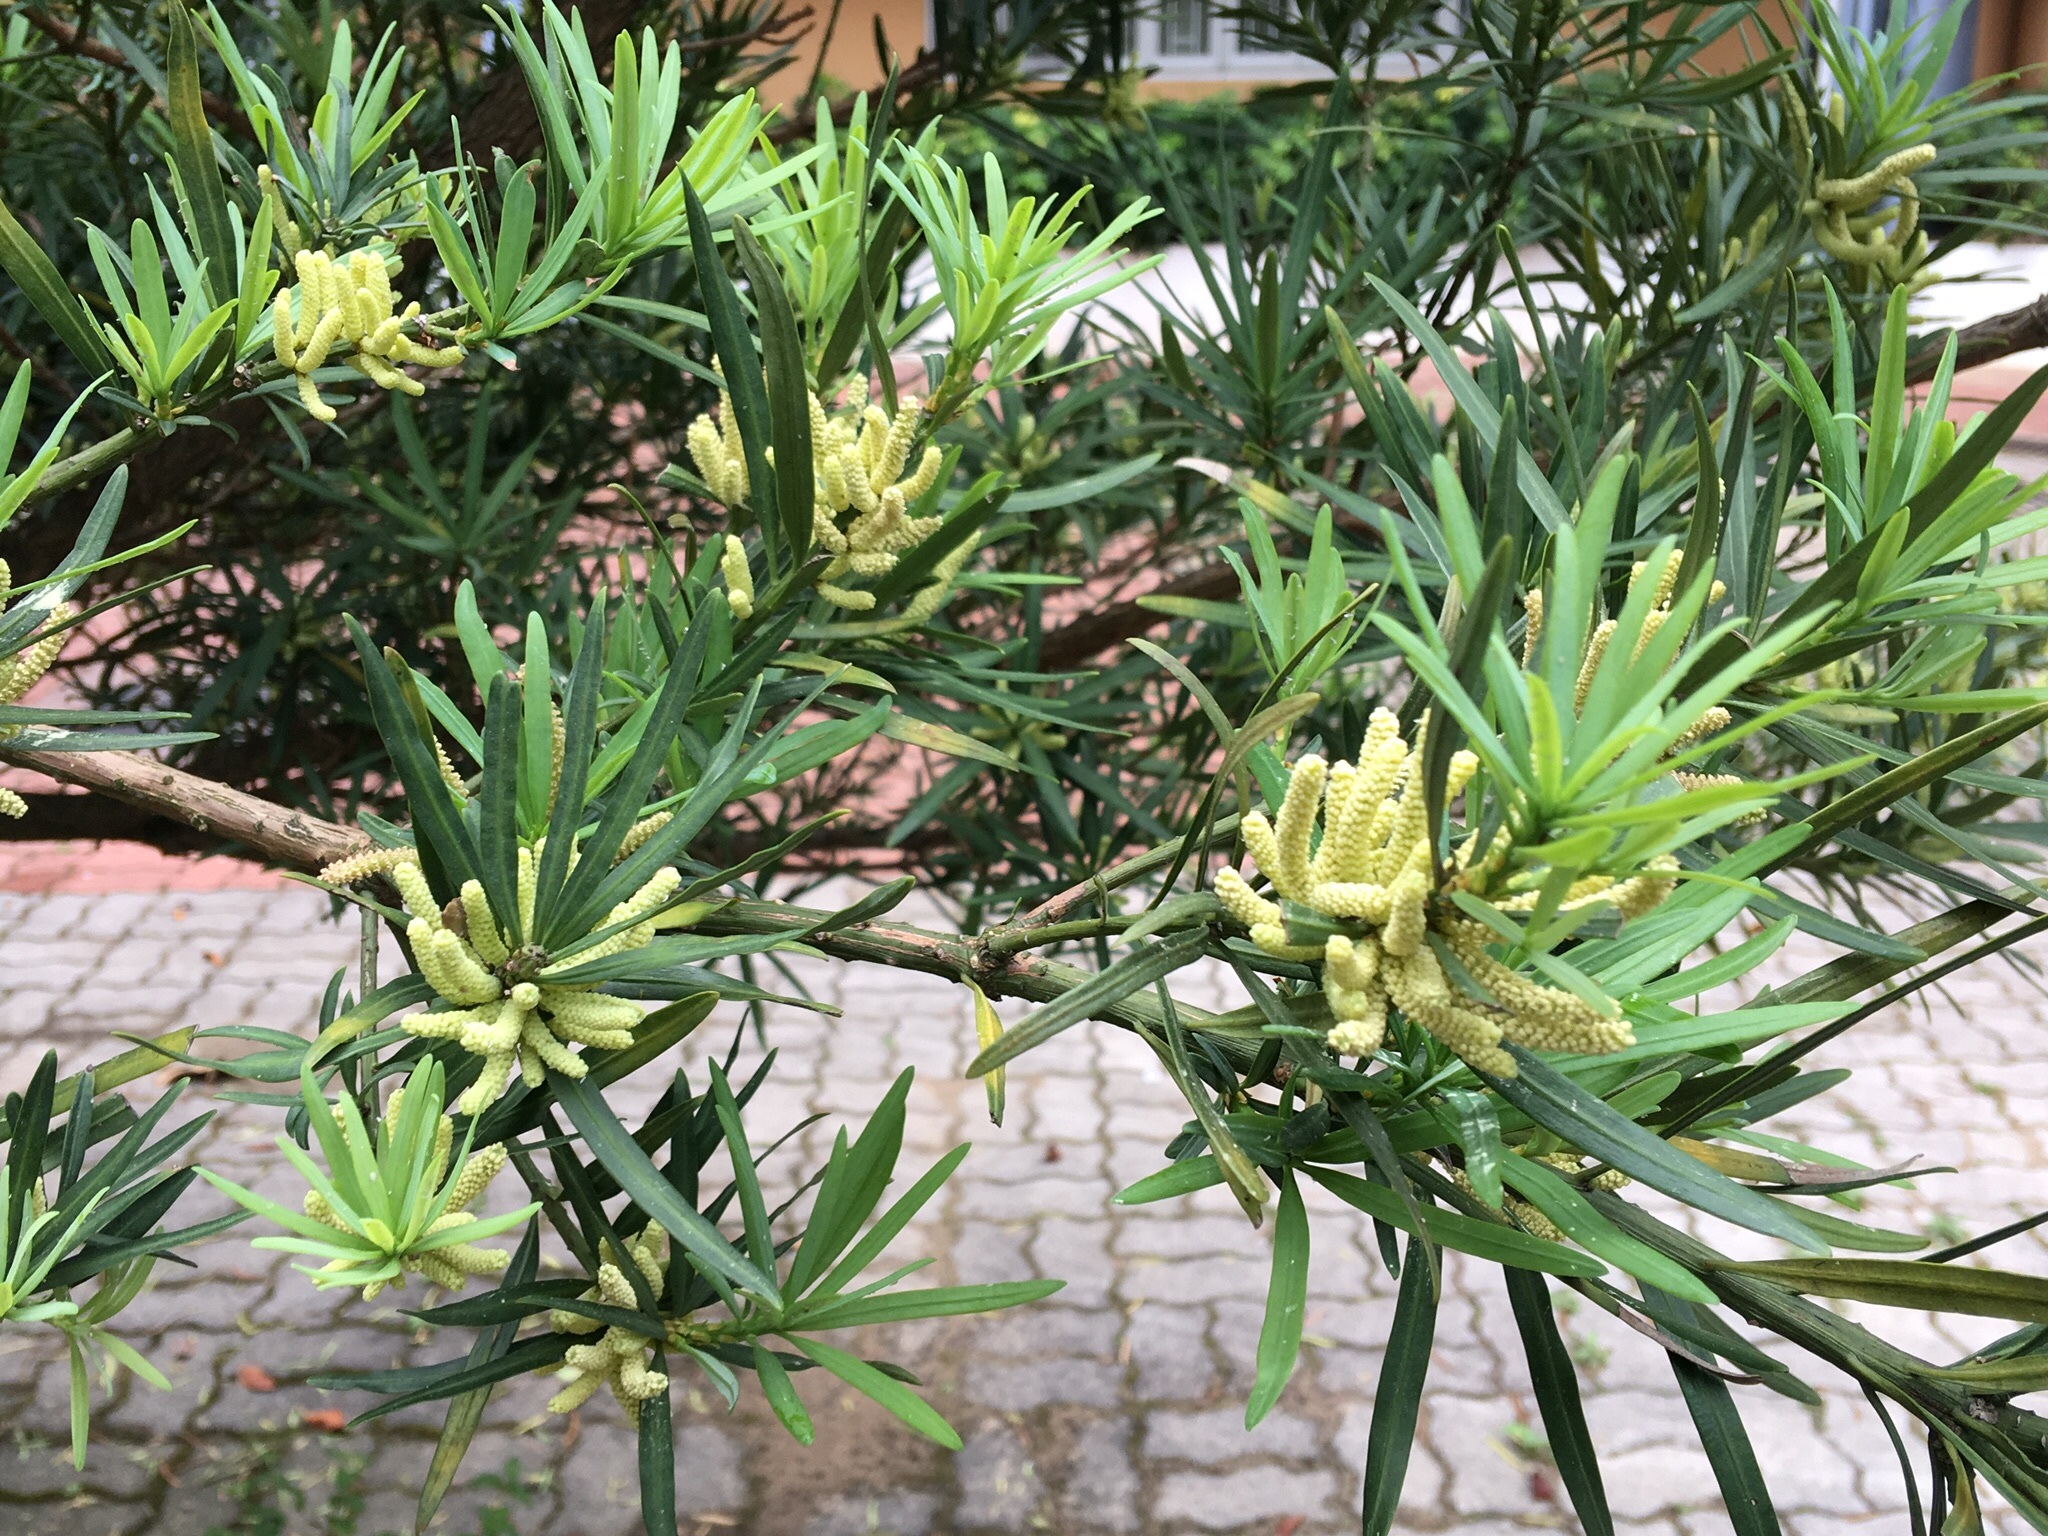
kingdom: Plantae
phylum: Tracheophyta
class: Pinopsida
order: Pinales
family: Podocarpaceae
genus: Podocarpus
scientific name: Podocarpus macrophyllus
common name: Japanese yew
